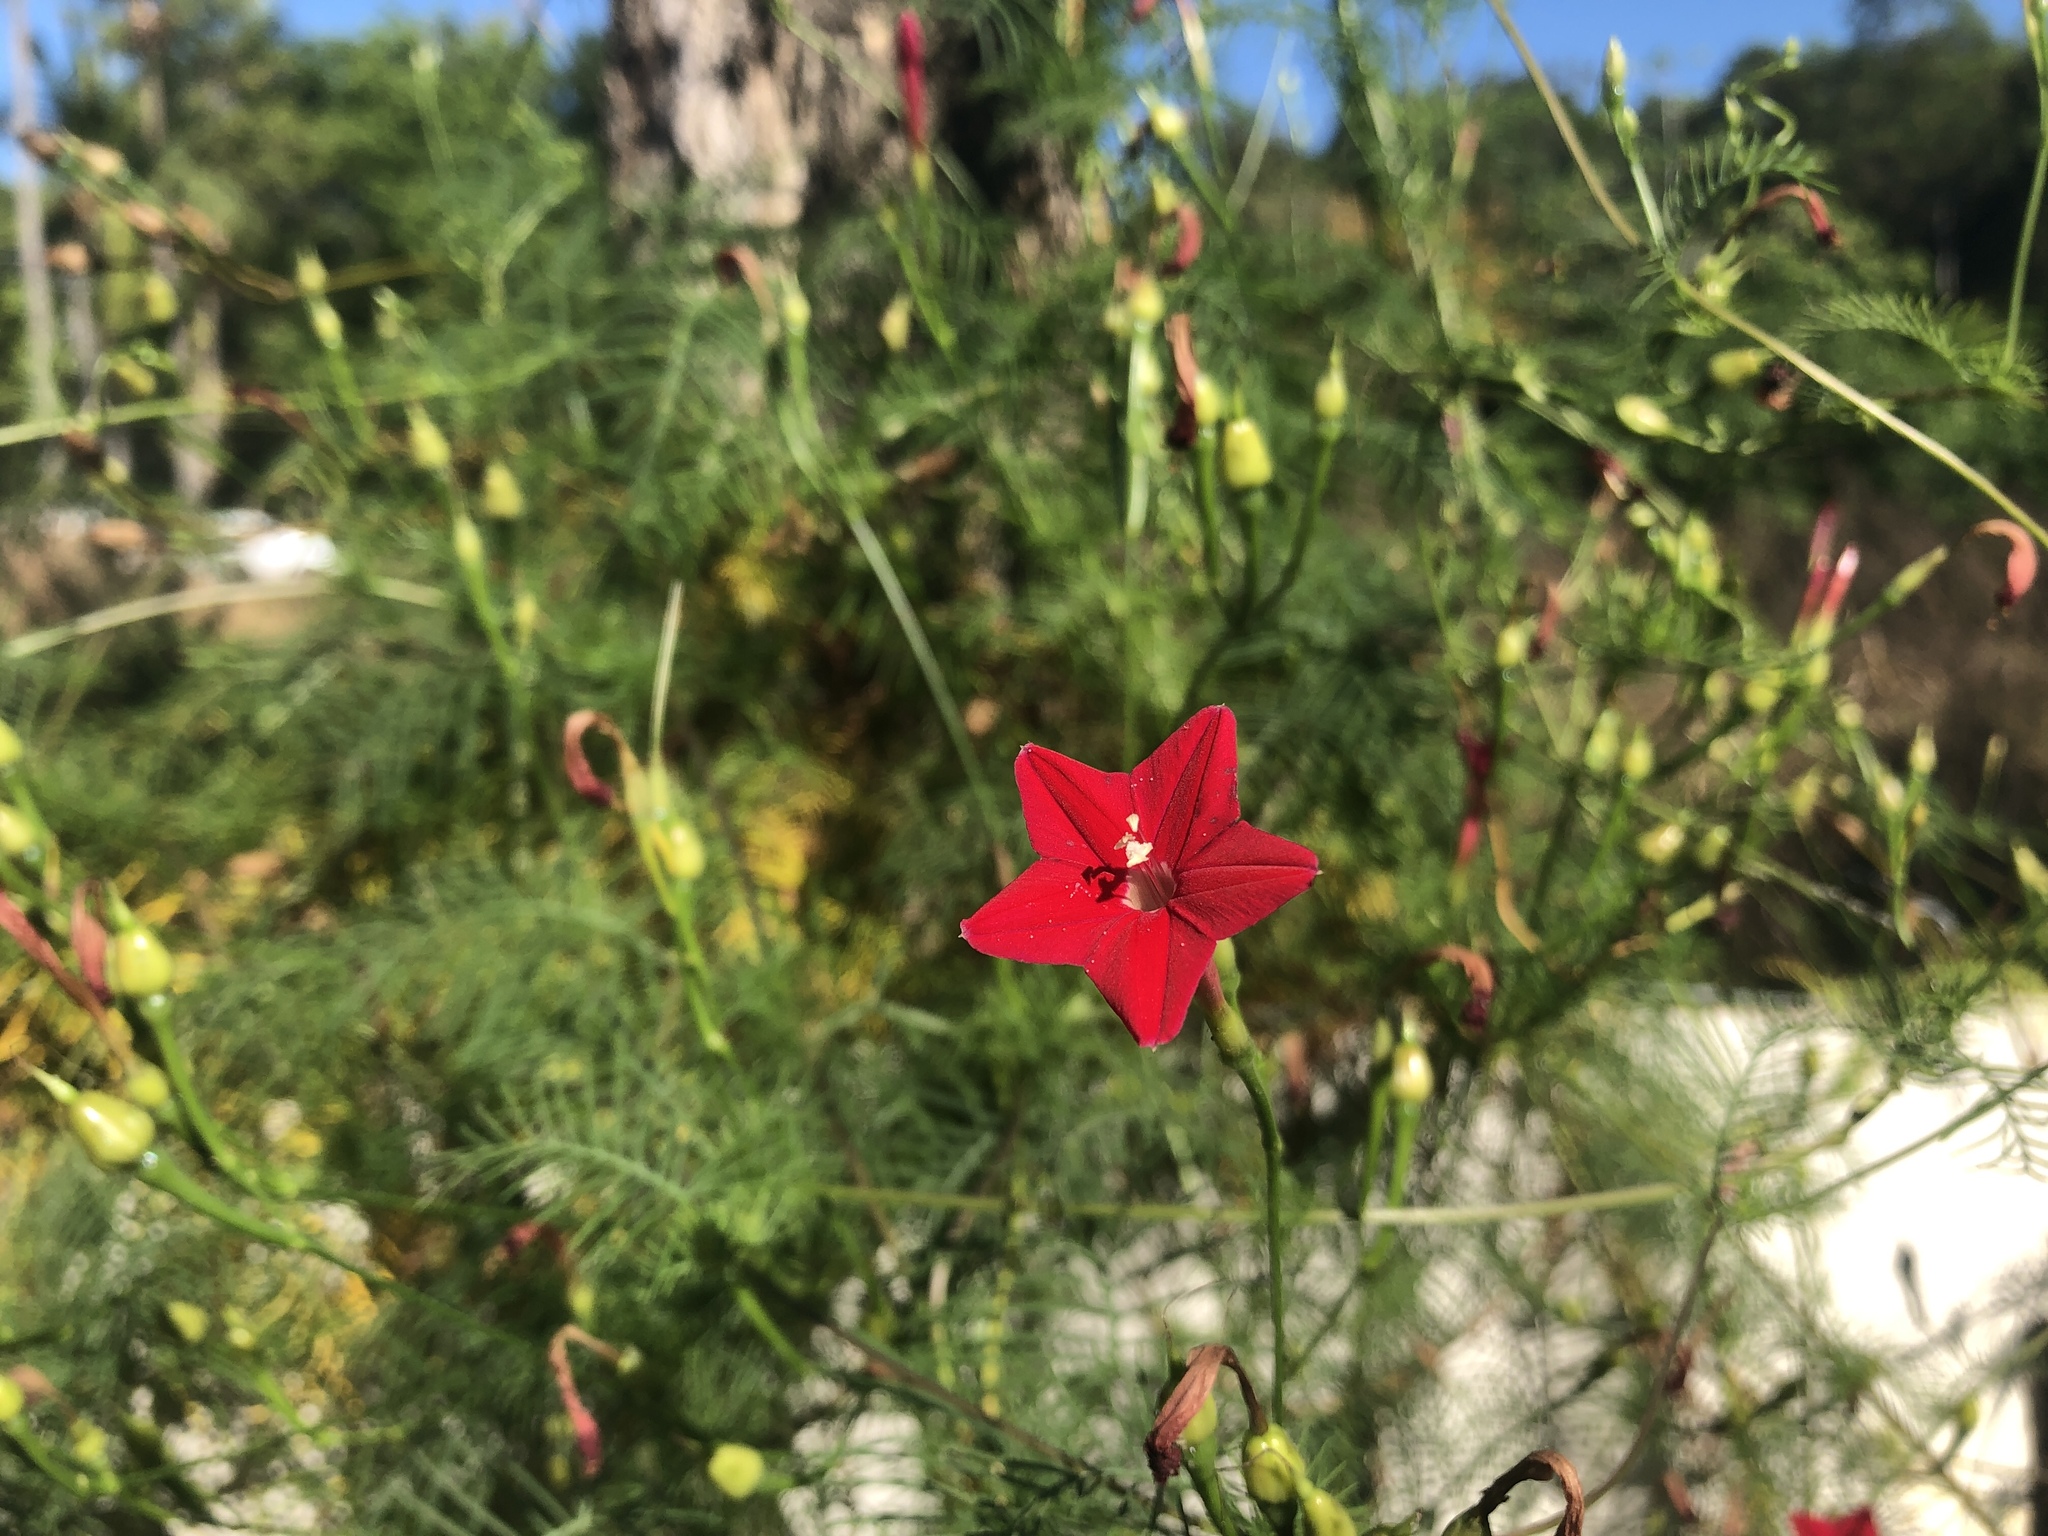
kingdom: Plantae
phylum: Tracheophyta
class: Magnoliopsida
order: Solanales
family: Convolvulaceae
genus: Ipomoea
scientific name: Ipomoea quamoclit
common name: Cypress vine
